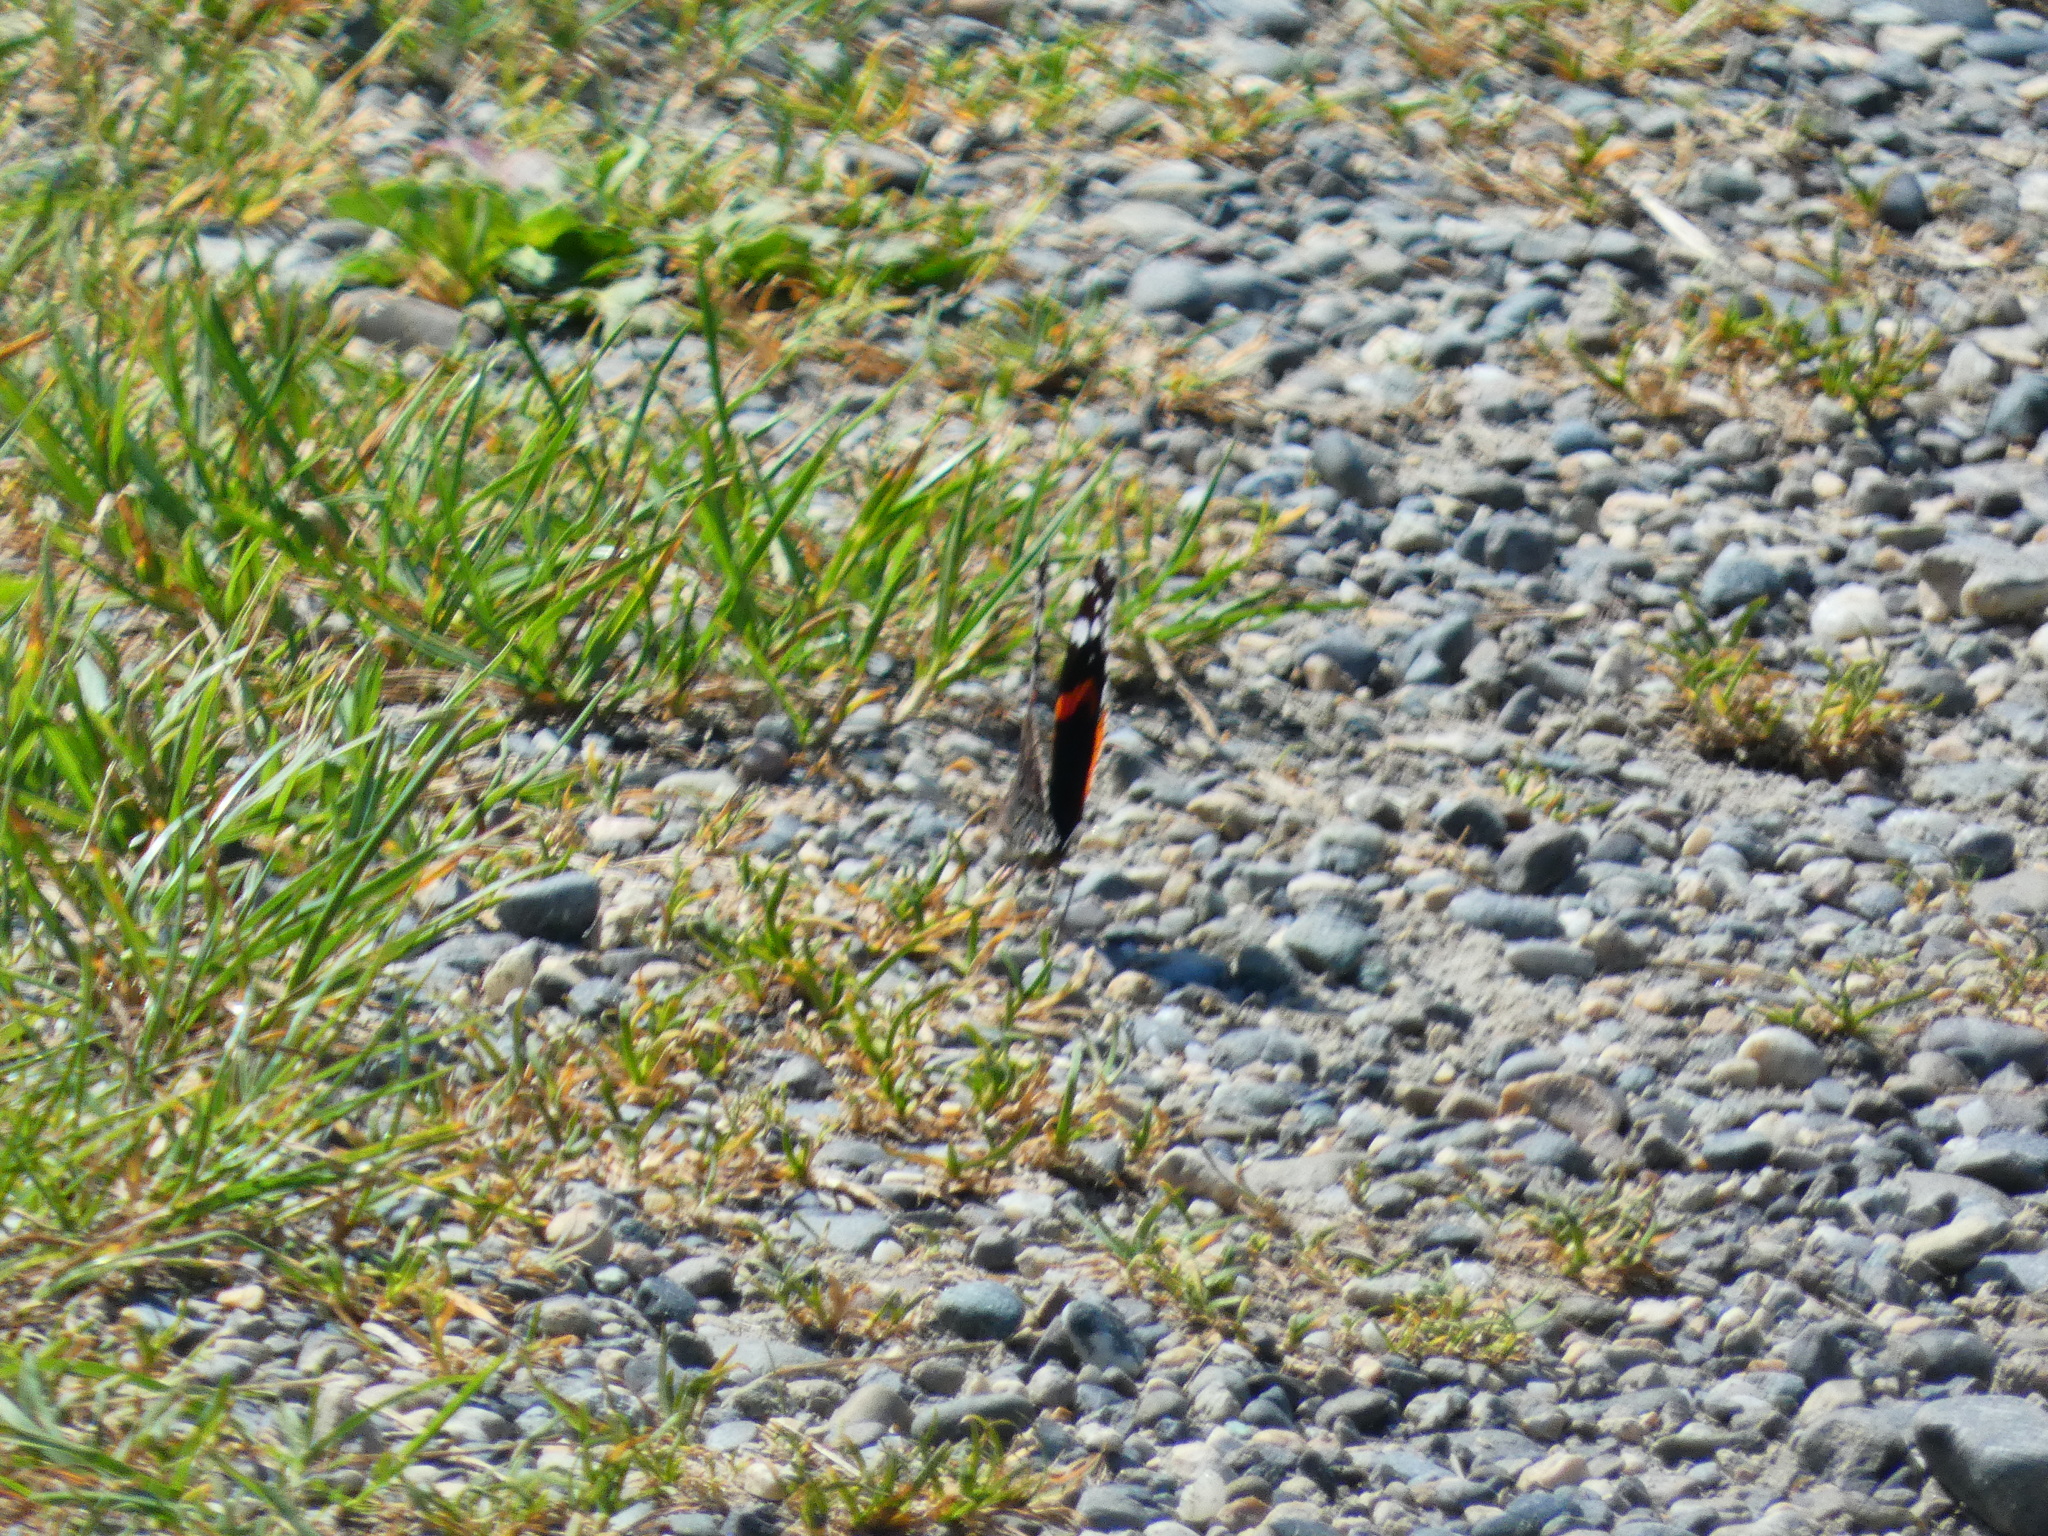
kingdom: Animalia
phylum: Arthropoda
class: Insecta
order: Lepidoptera
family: Nymphalidae
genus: Vanessa
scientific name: Vanessa atalanta
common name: Red admiral
